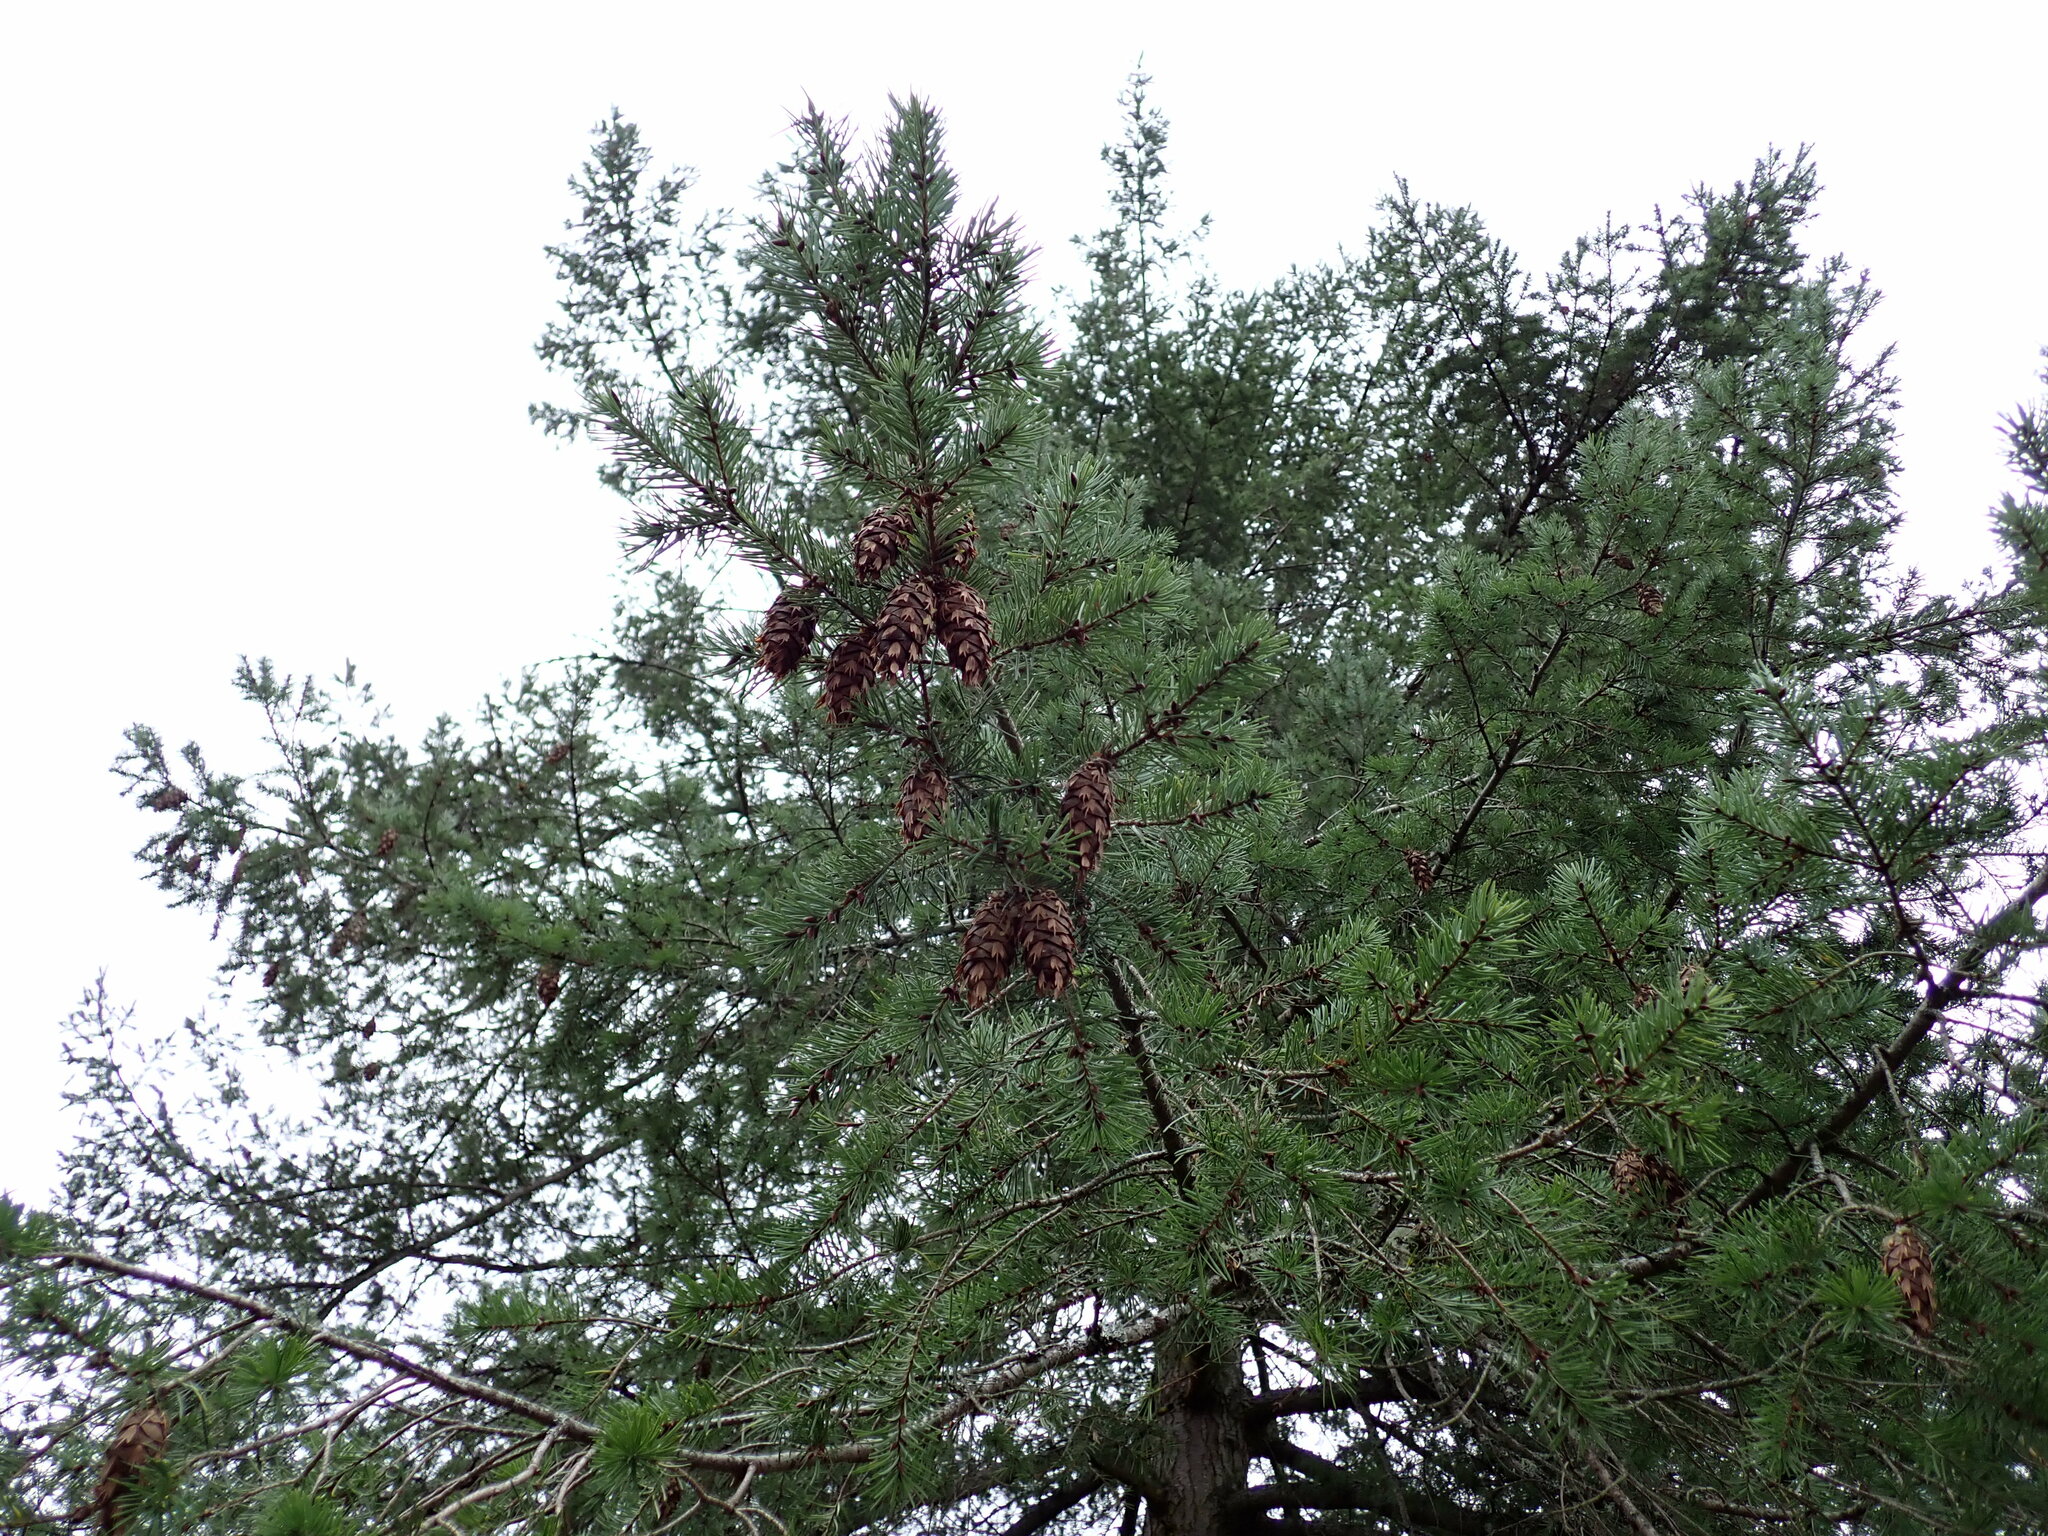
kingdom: Plantae
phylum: Tracheophyta
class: Pinopsida
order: Pinales
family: Pinaceae
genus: Pseudotsuga
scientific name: Pseudotsuga menziesii
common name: Douglas fir
